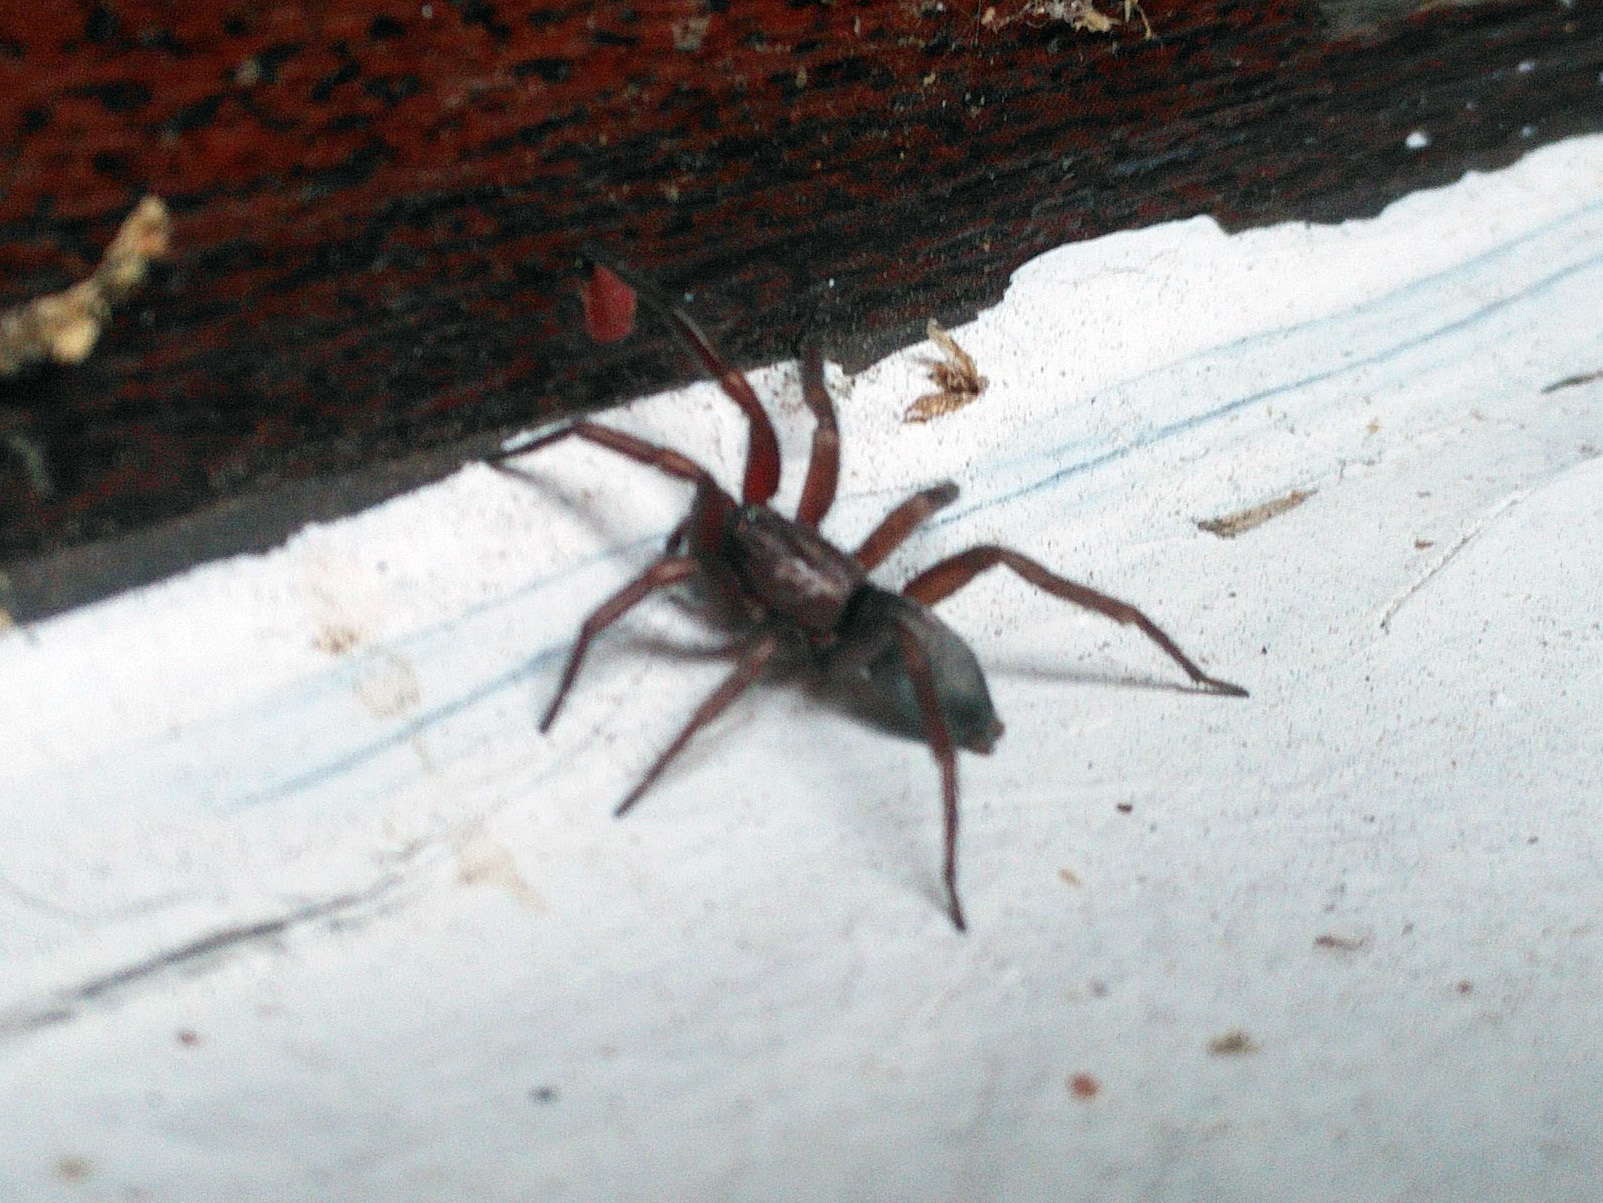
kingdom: Animalia
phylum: Arthropoda
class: Arachnida
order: Araneae
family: Gnaphosidae
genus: Scotophaeus
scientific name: Scotophaeus blackwalli
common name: Mouse spider
